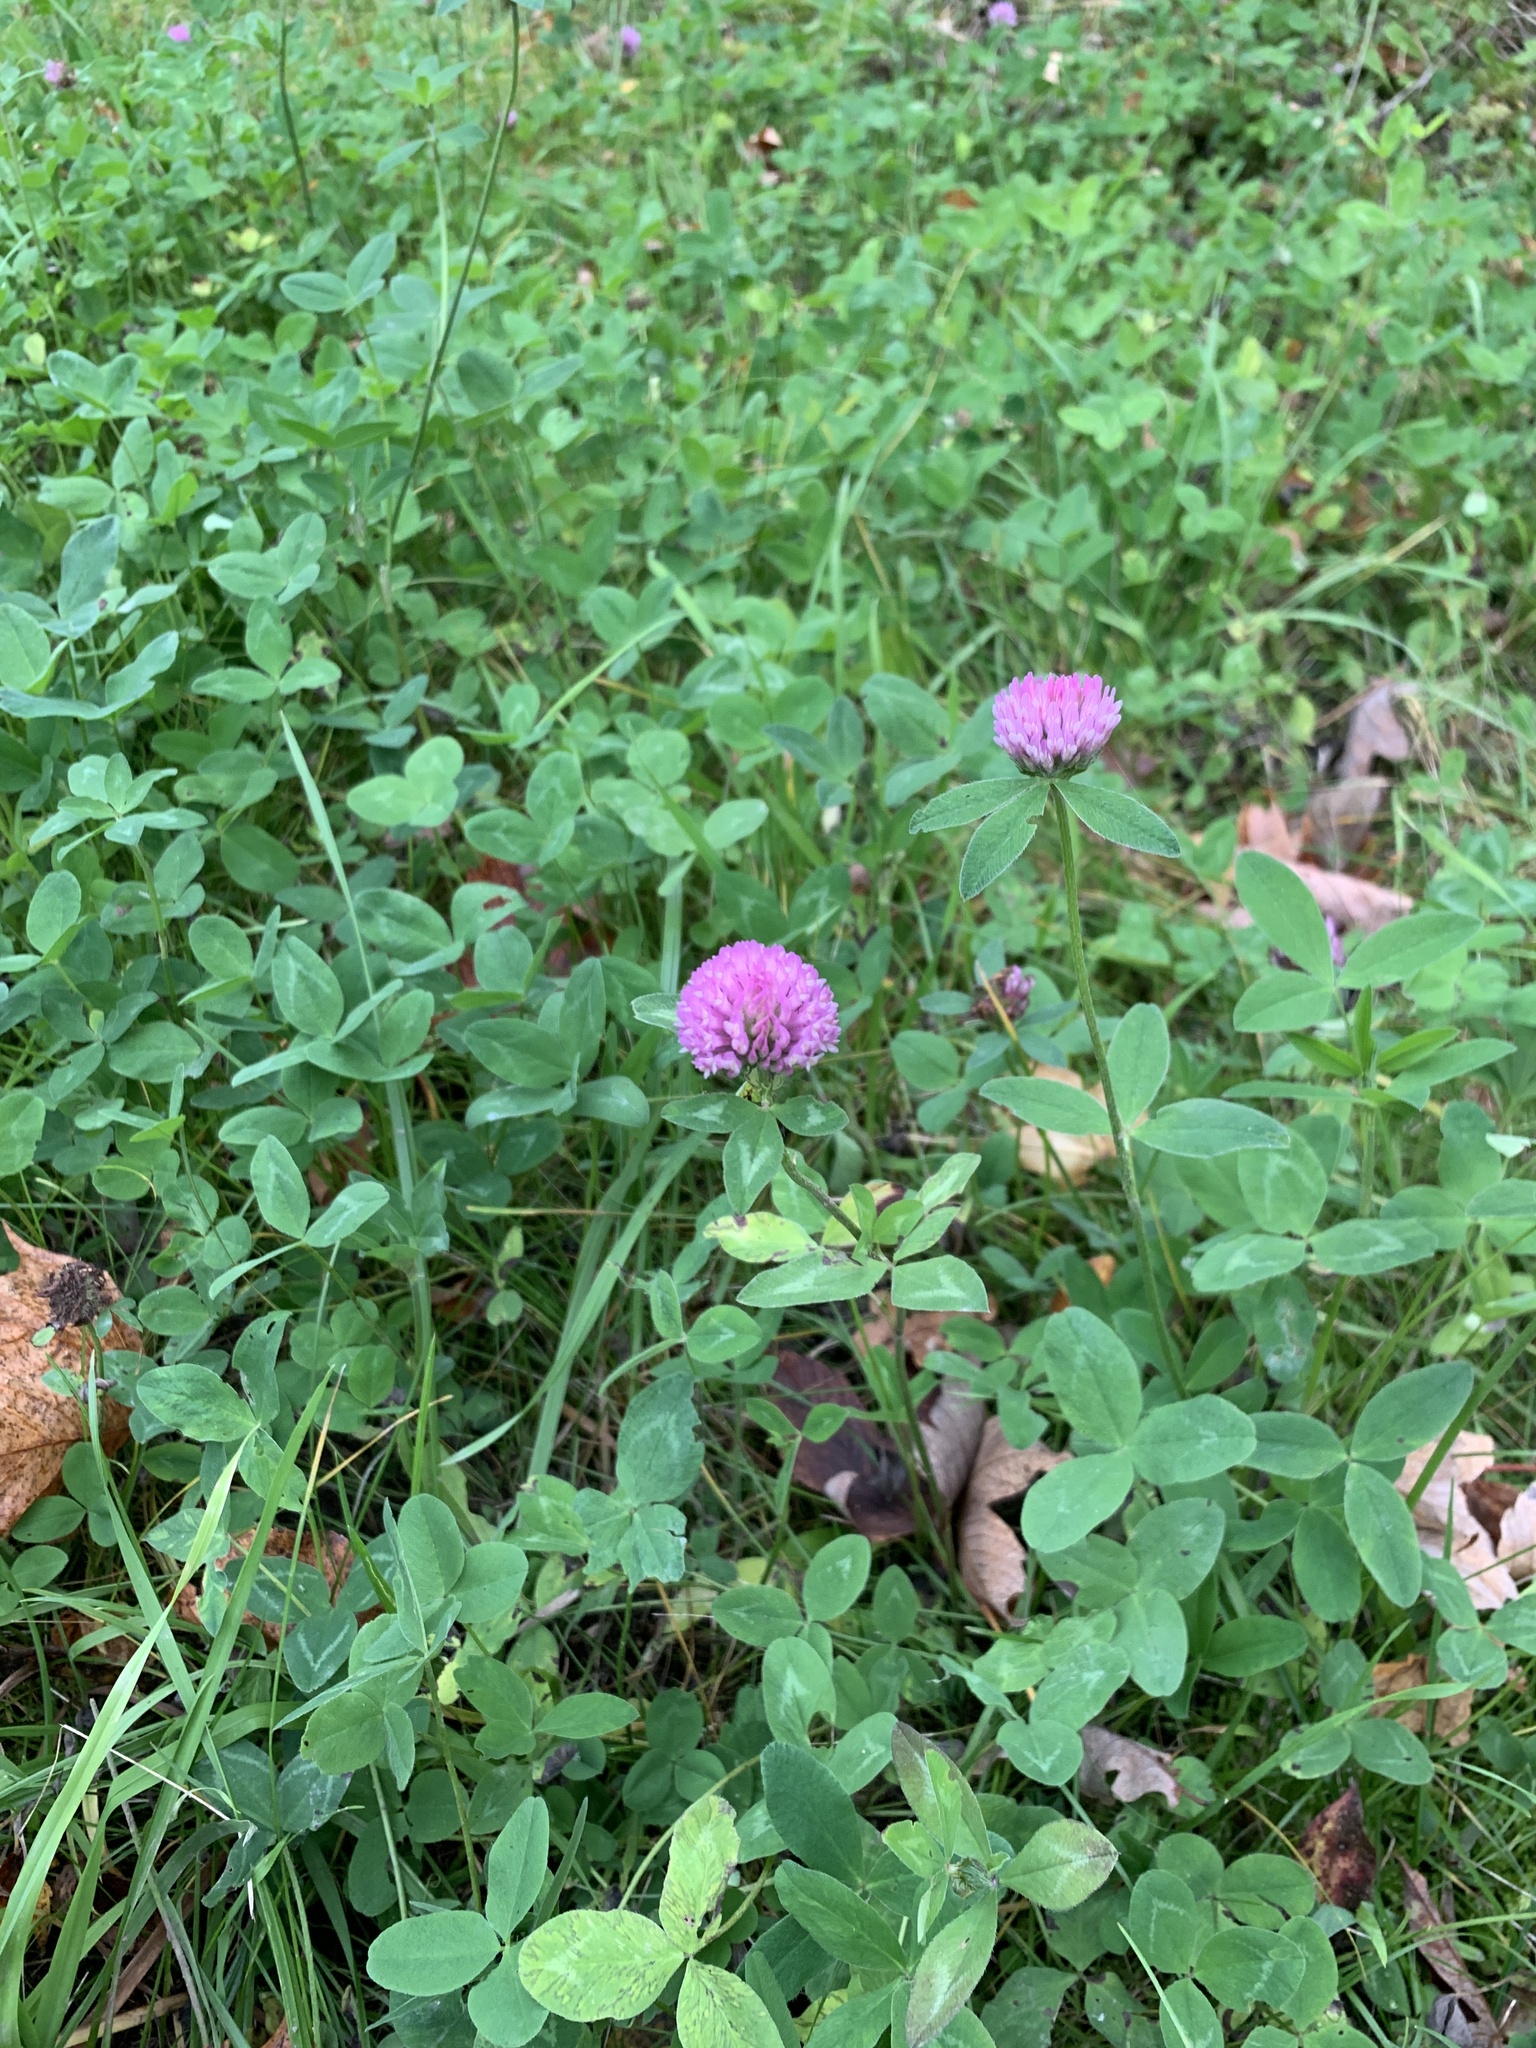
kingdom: Plantae
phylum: Tracheophyta
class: Magnoliopsida
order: Fabales
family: Fabaceae
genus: Trifolium
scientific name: Trifolium pratense
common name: Red clover
